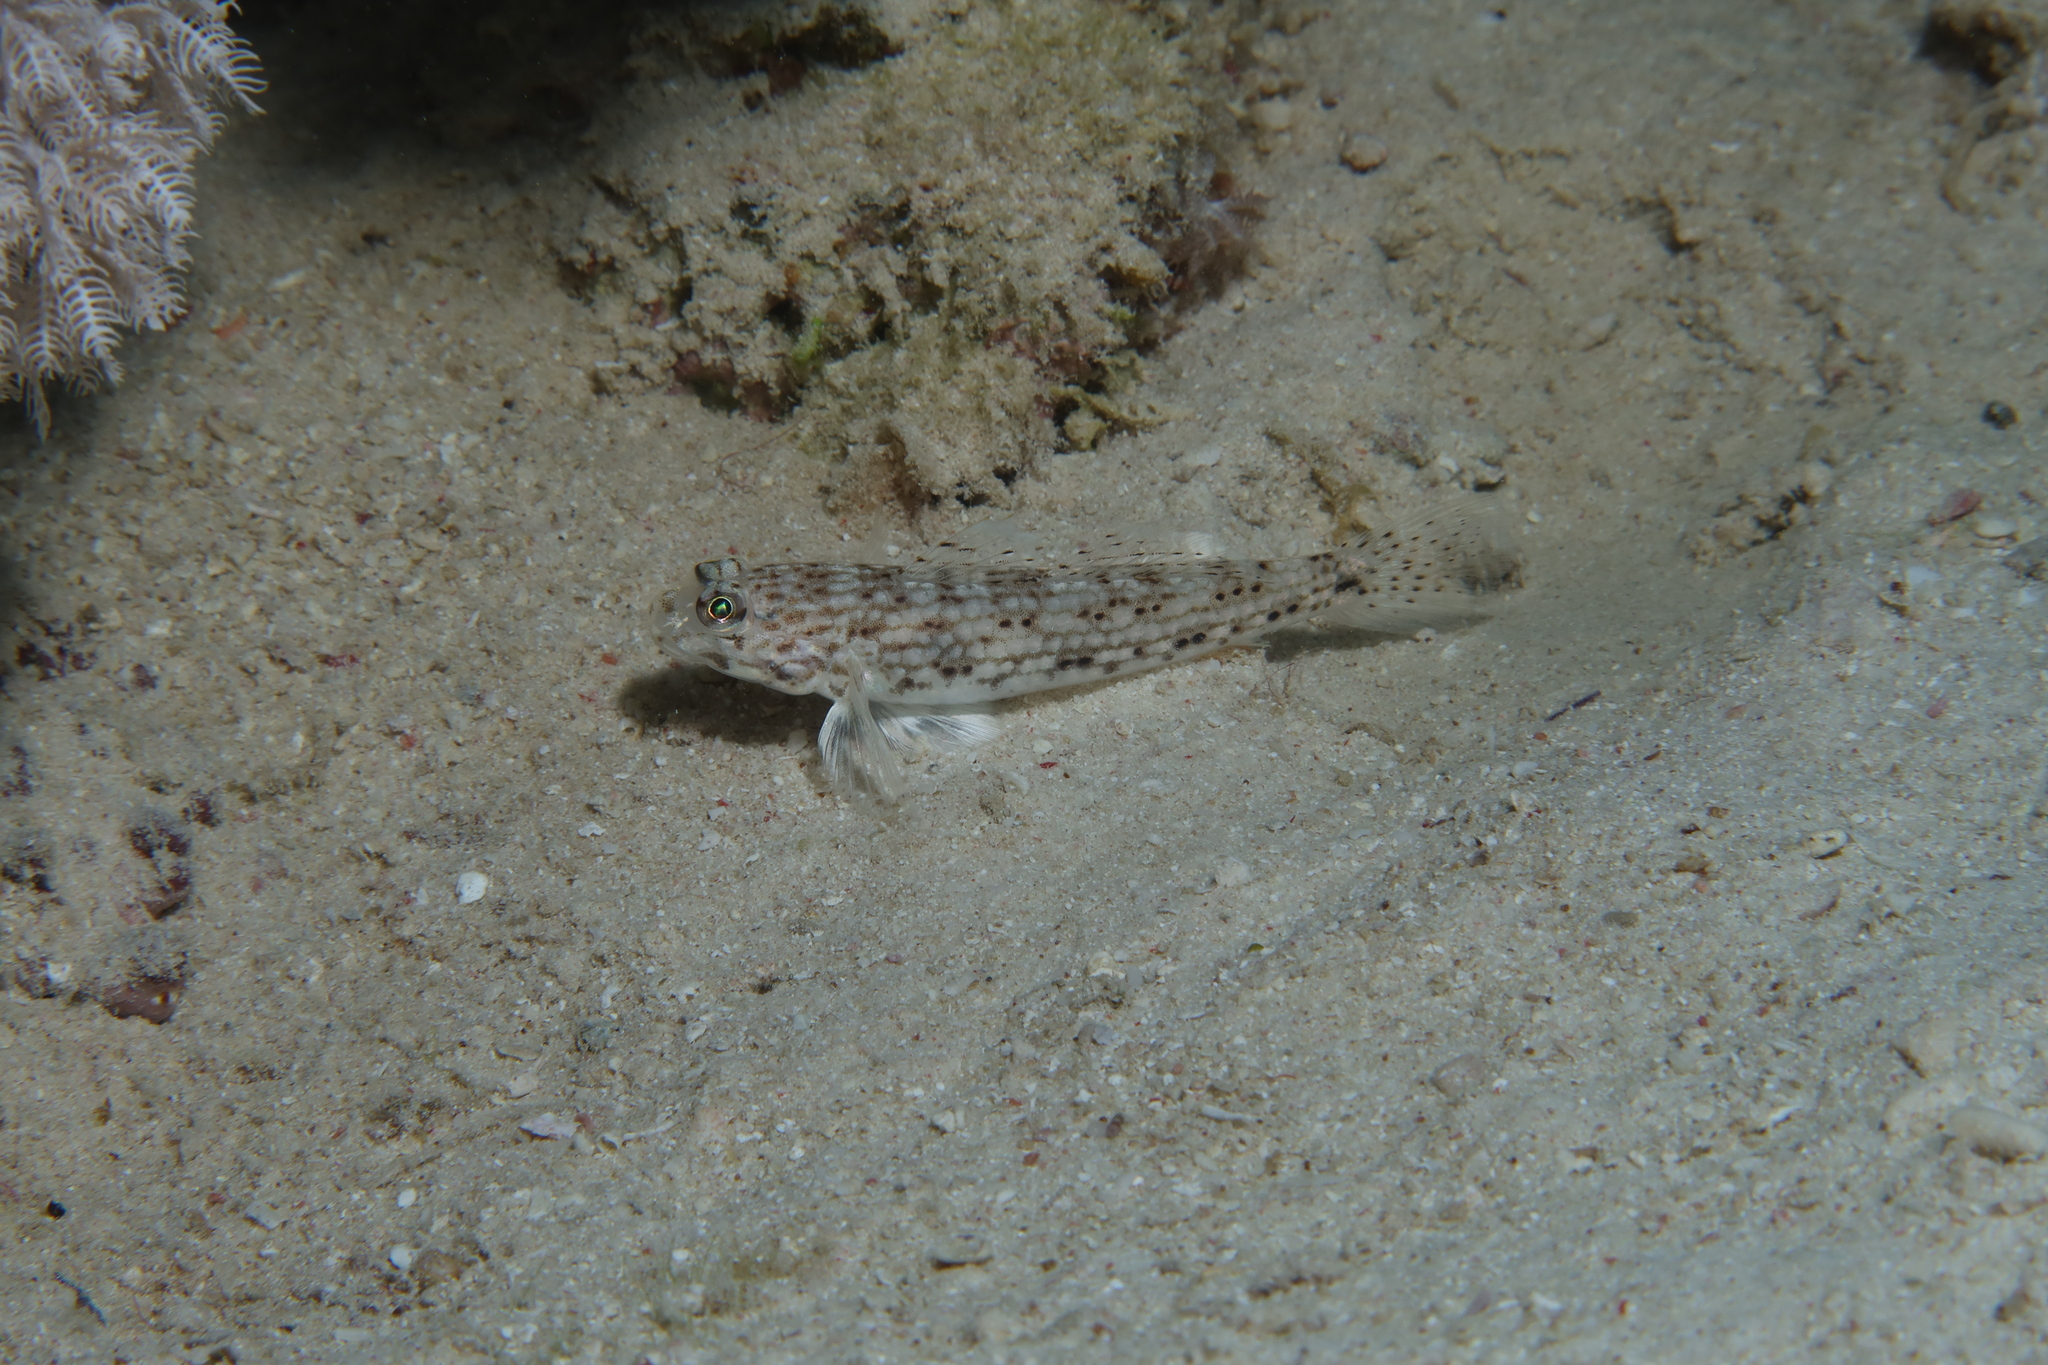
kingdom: Animalia
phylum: Chordata
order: Perciformes
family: Gobiidae
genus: Istigobius
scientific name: Istigobius decoratus
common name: Decorated goby
